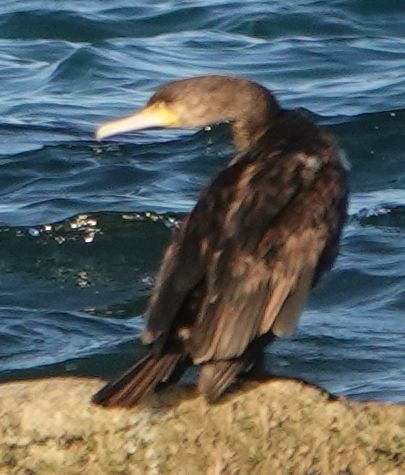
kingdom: Animalia
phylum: Chordata
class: Aves
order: Suliformes
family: Phalacrocoracidae
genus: Phalacrocorax
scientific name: Phalacrocorax carbo
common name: Great cormorant
